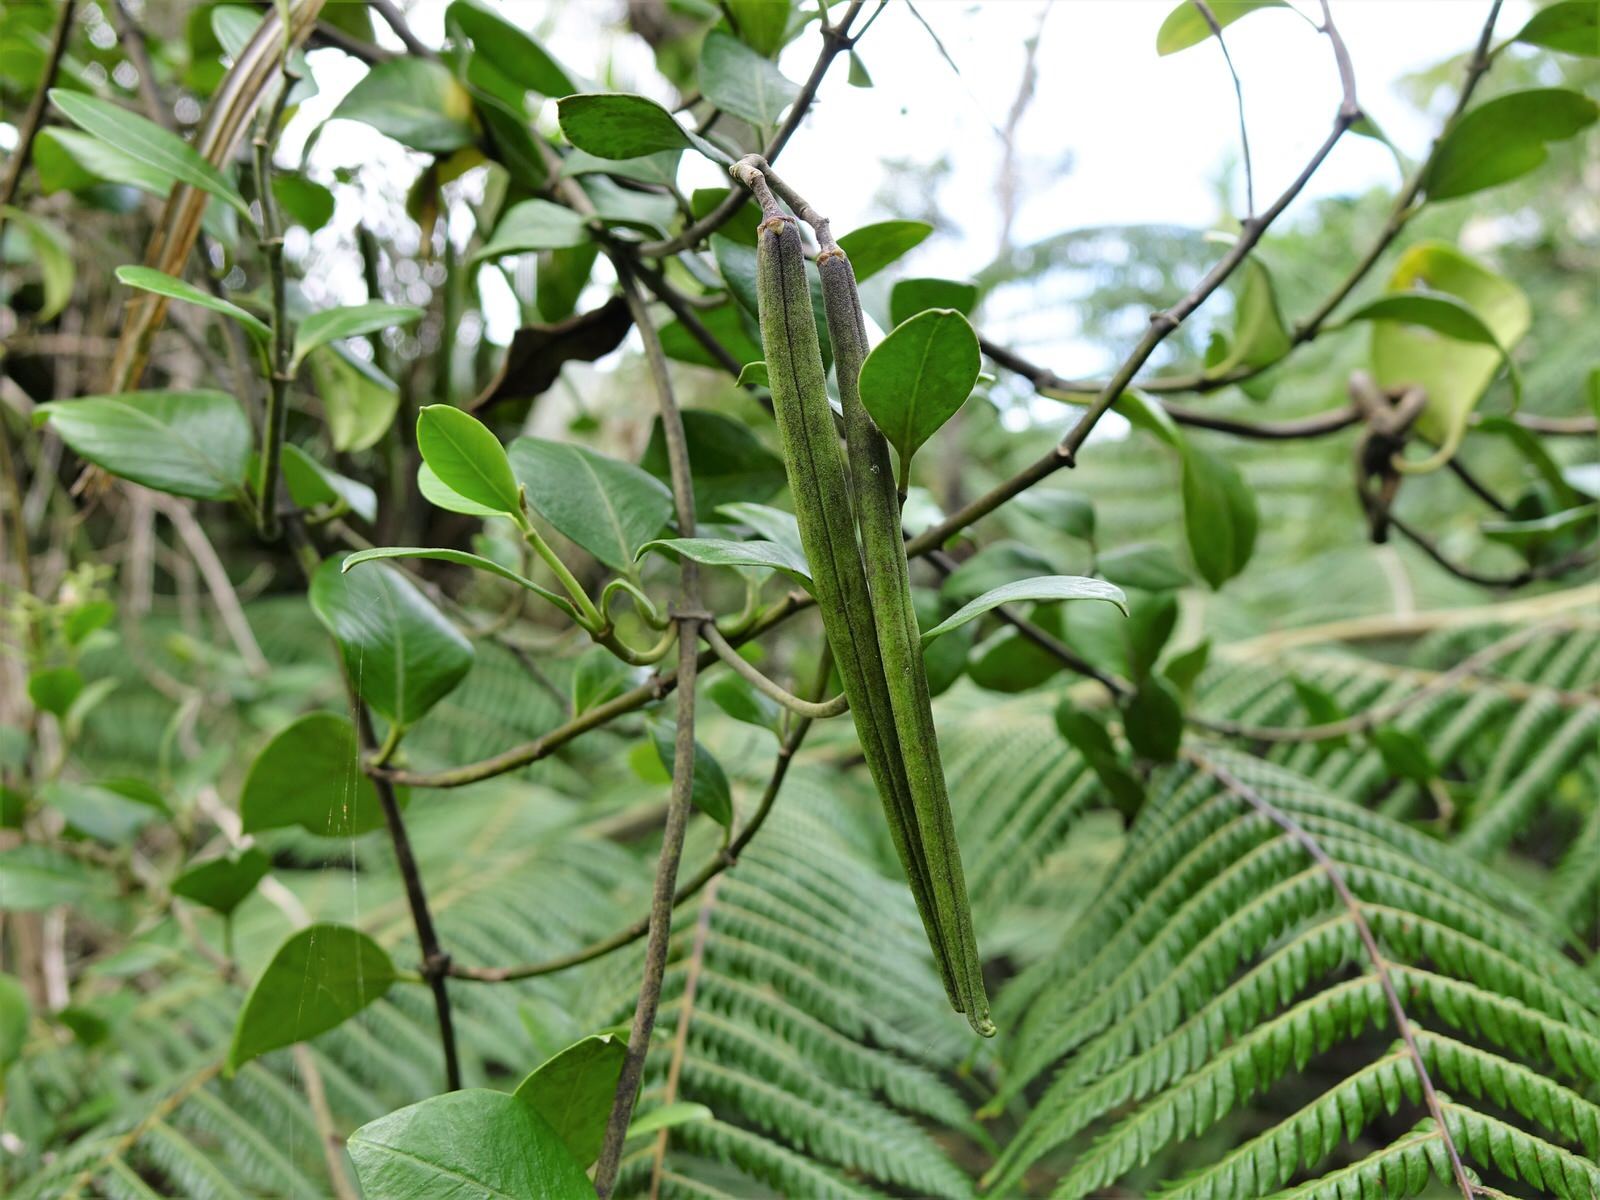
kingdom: Plantae
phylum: Tracheophyta
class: Magnoliopsida
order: Gentianales
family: Apocynaceae
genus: Parsonsia
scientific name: Parsonsia heterophylla
